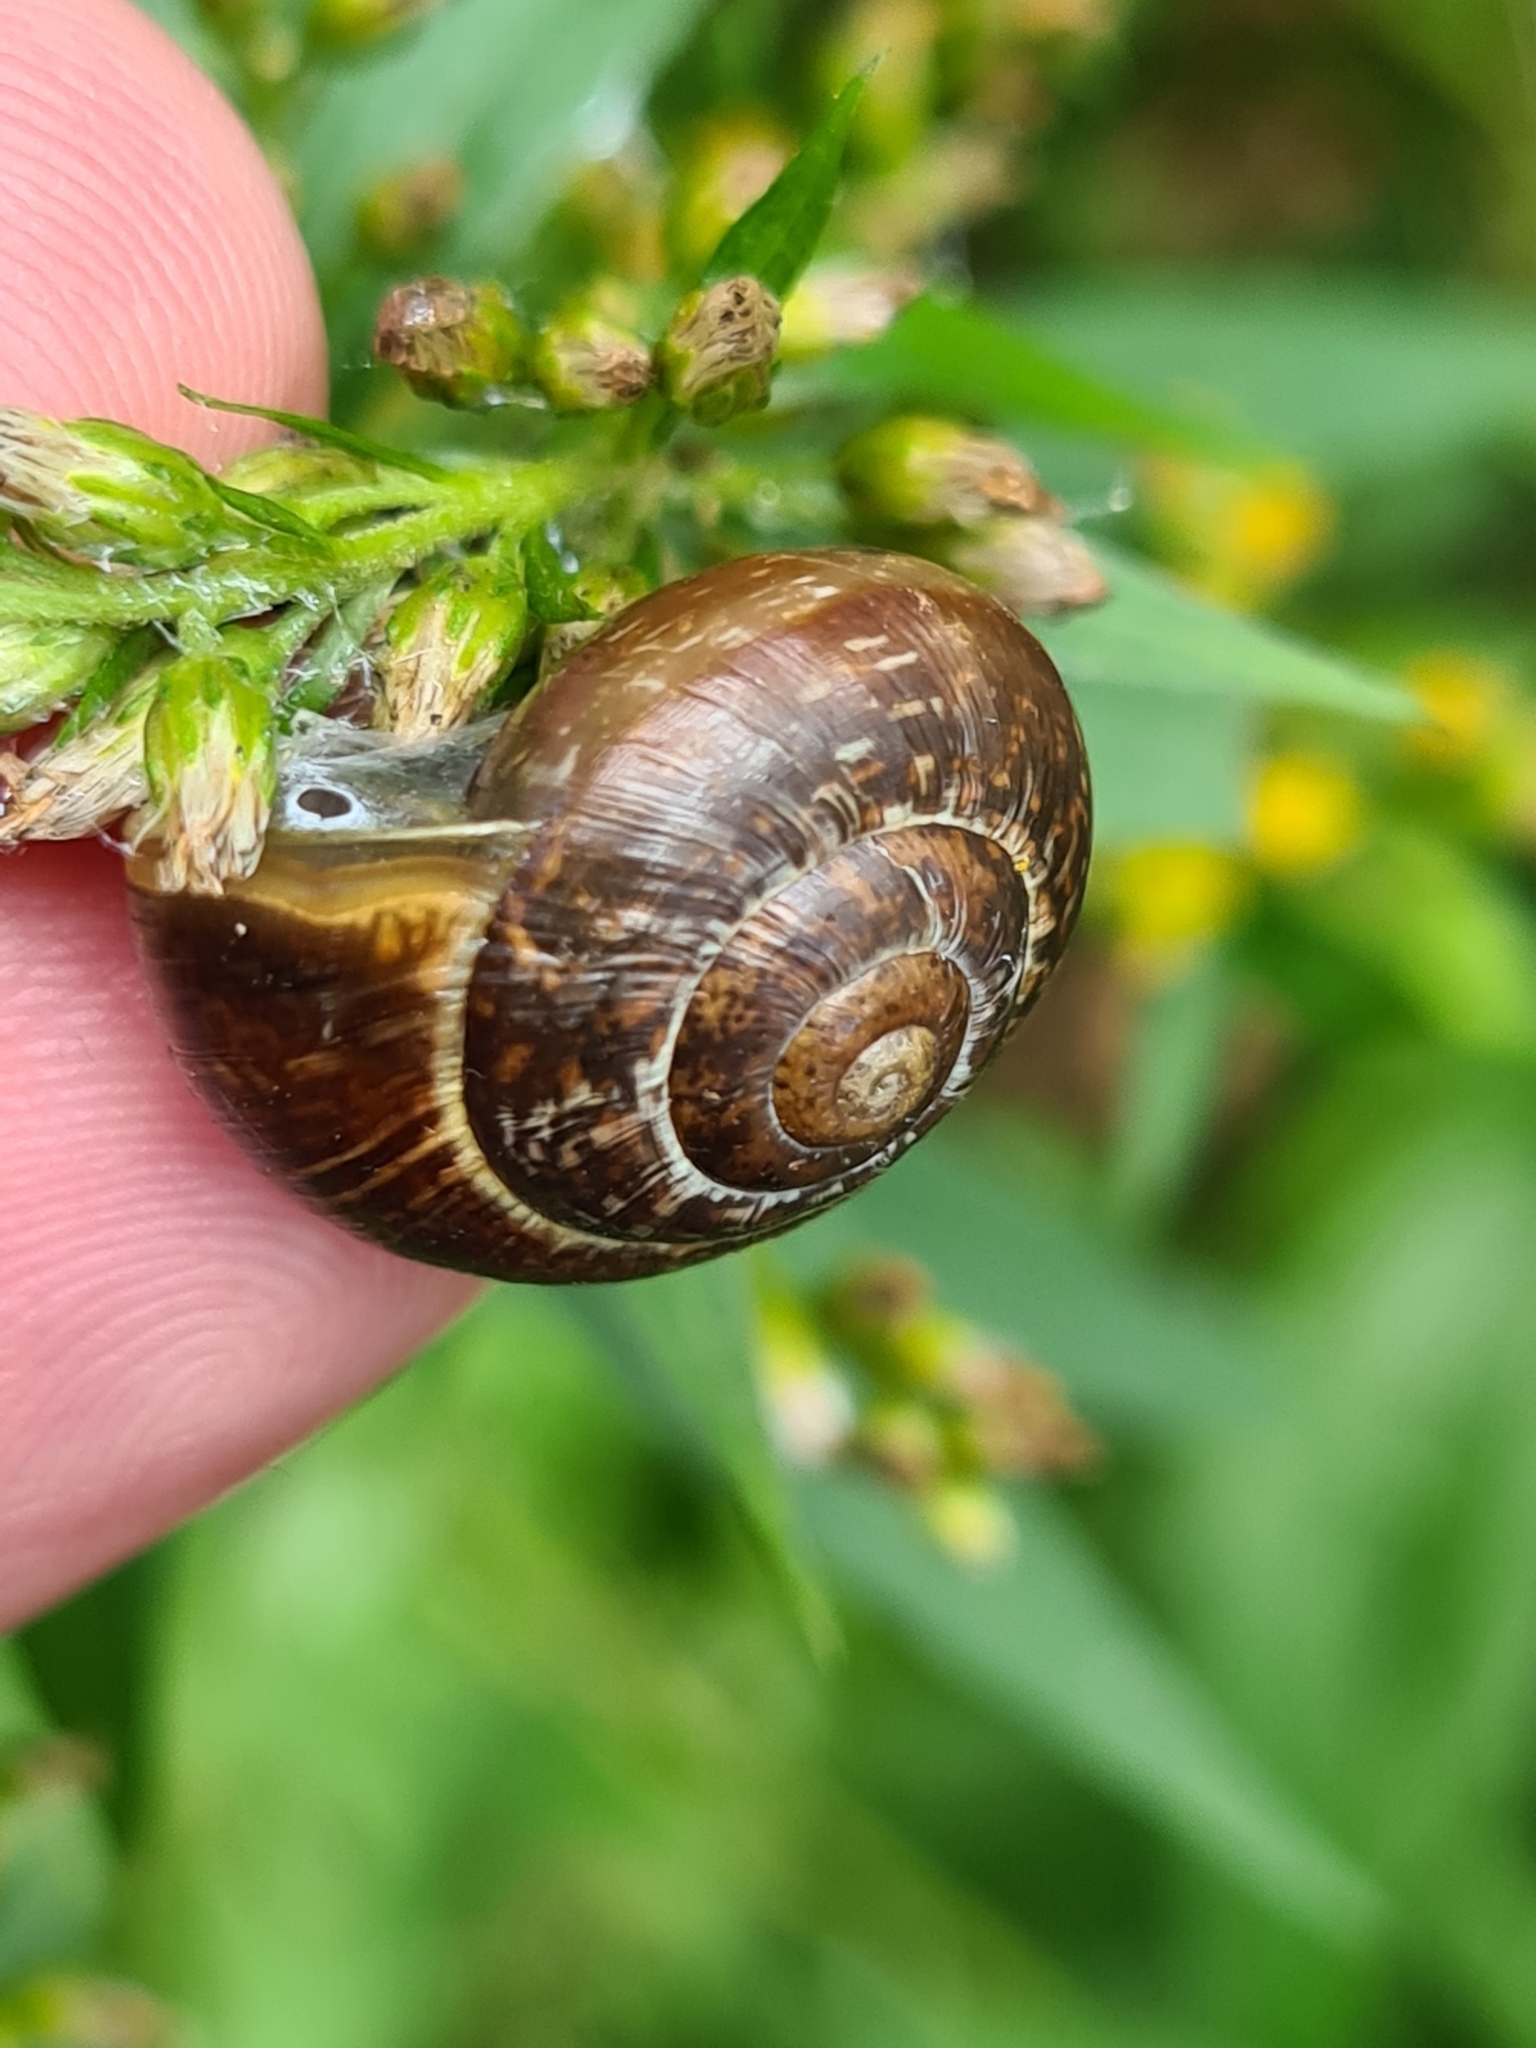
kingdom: Animalia
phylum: Mollusca
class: Gastropoda
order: Stylommatophora
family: Helicidae
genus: Arianta
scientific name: Arianta arbustorum
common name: Copse snail
